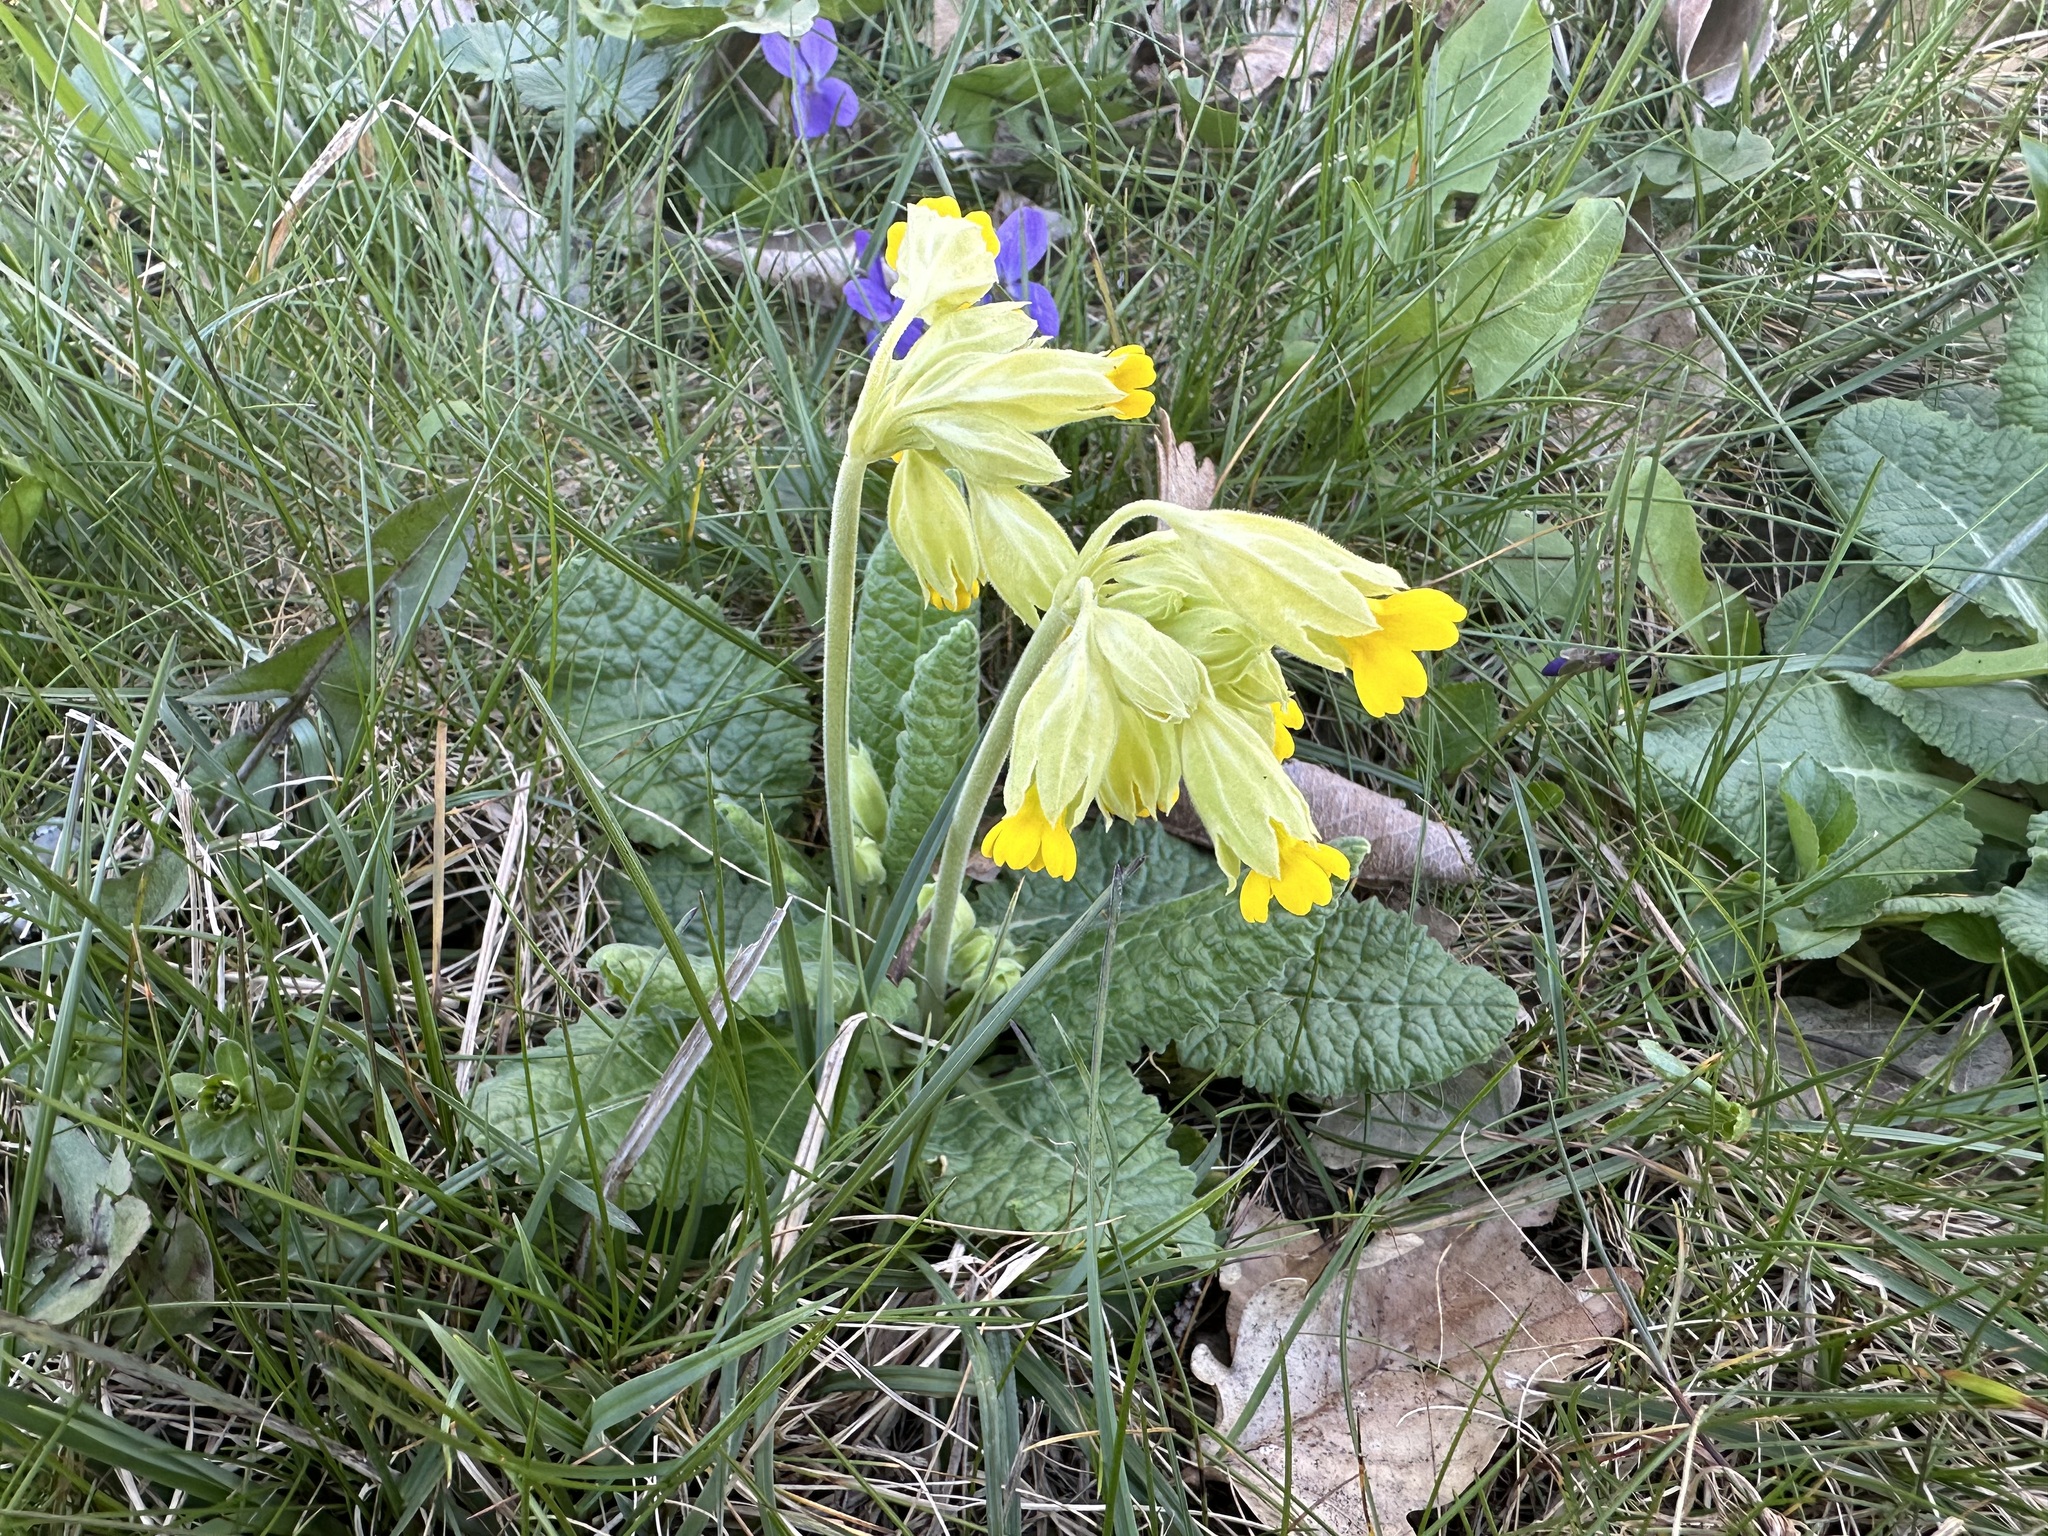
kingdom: Plantae
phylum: Tracheophyta
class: Magnoliopsida
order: Ericales
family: Primulaceae
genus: Primula
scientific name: Primula veris
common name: Cowslip
